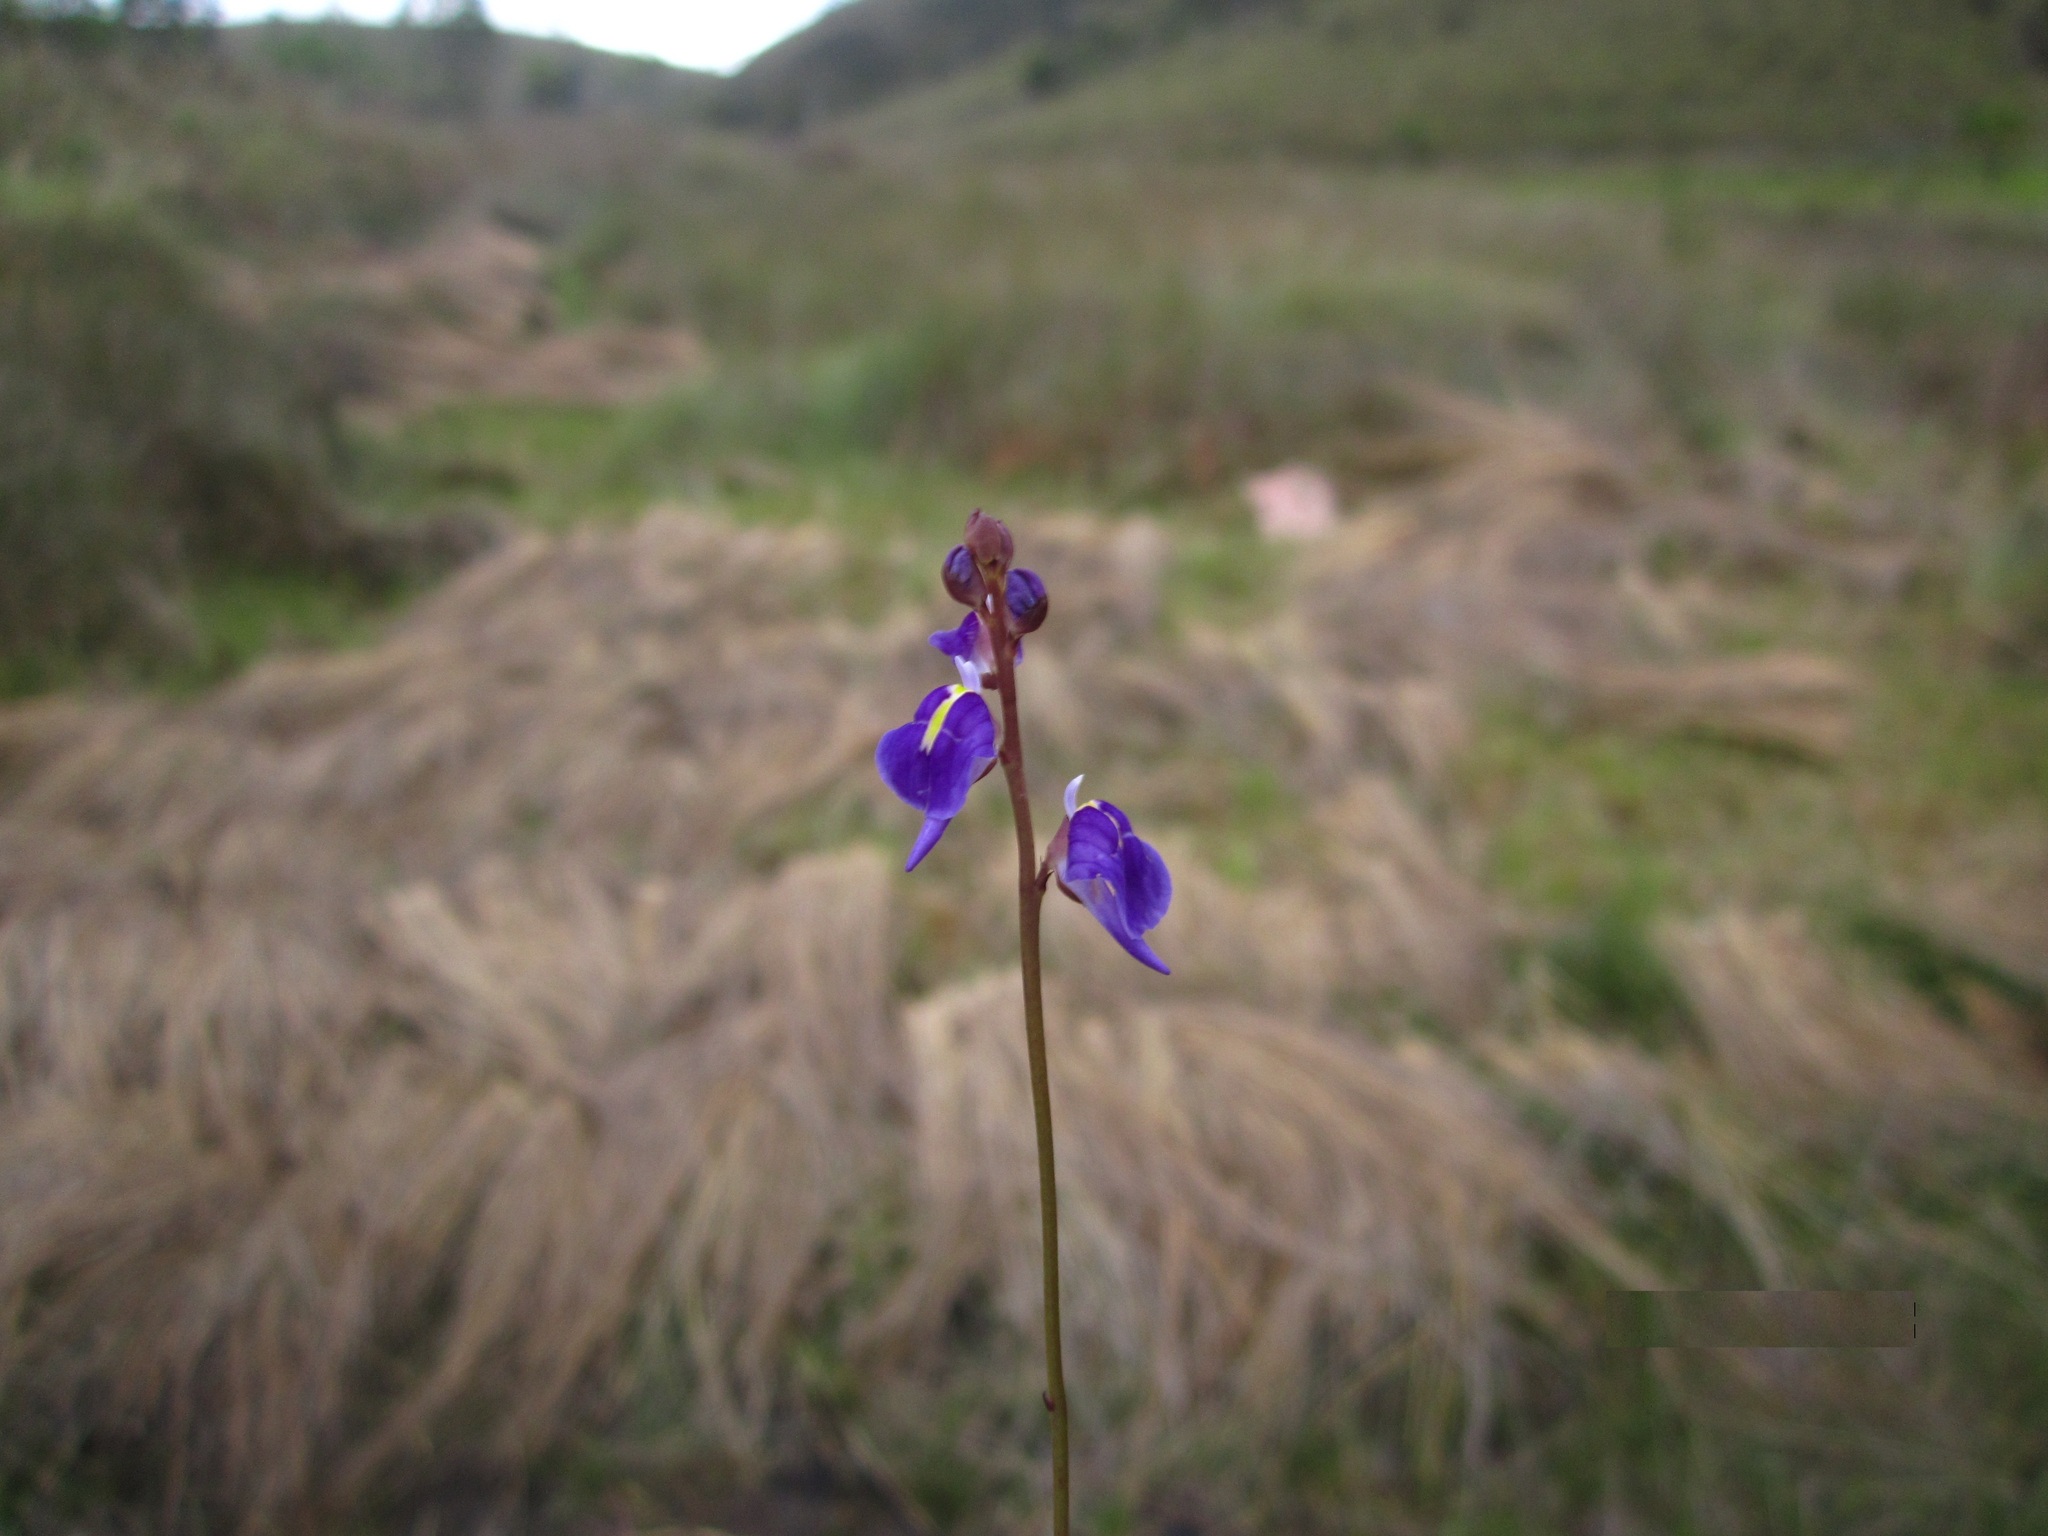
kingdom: Plantae
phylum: Tracheophyta
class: Magnoliopsida
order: Lamiales
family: Lentibulariaceae
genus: Utricularia
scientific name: Utricularia livida
